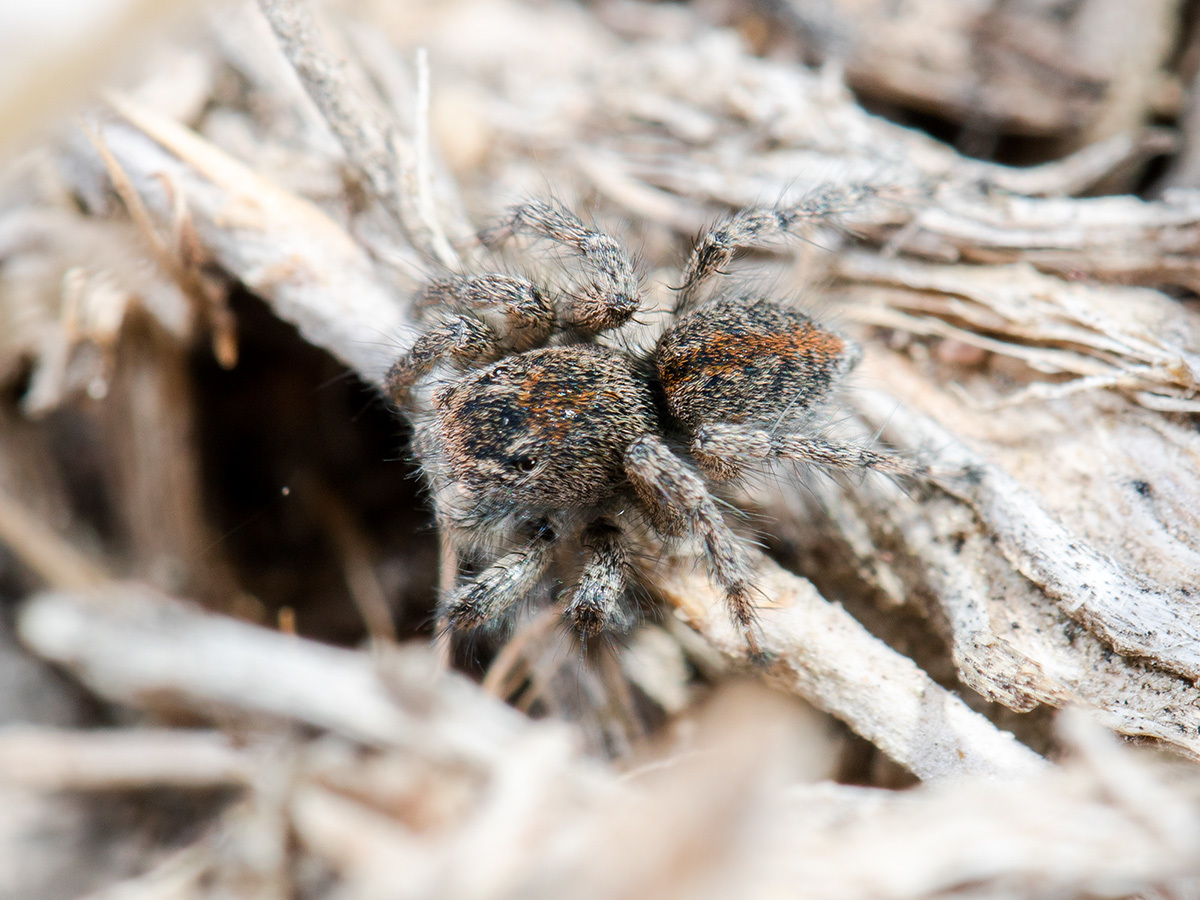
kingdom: Animalia
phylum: Arthropoda
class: Arachnida
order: Araneae
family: Salticidae
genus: Aelurillus
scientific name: Aelurillus dubatolovi
